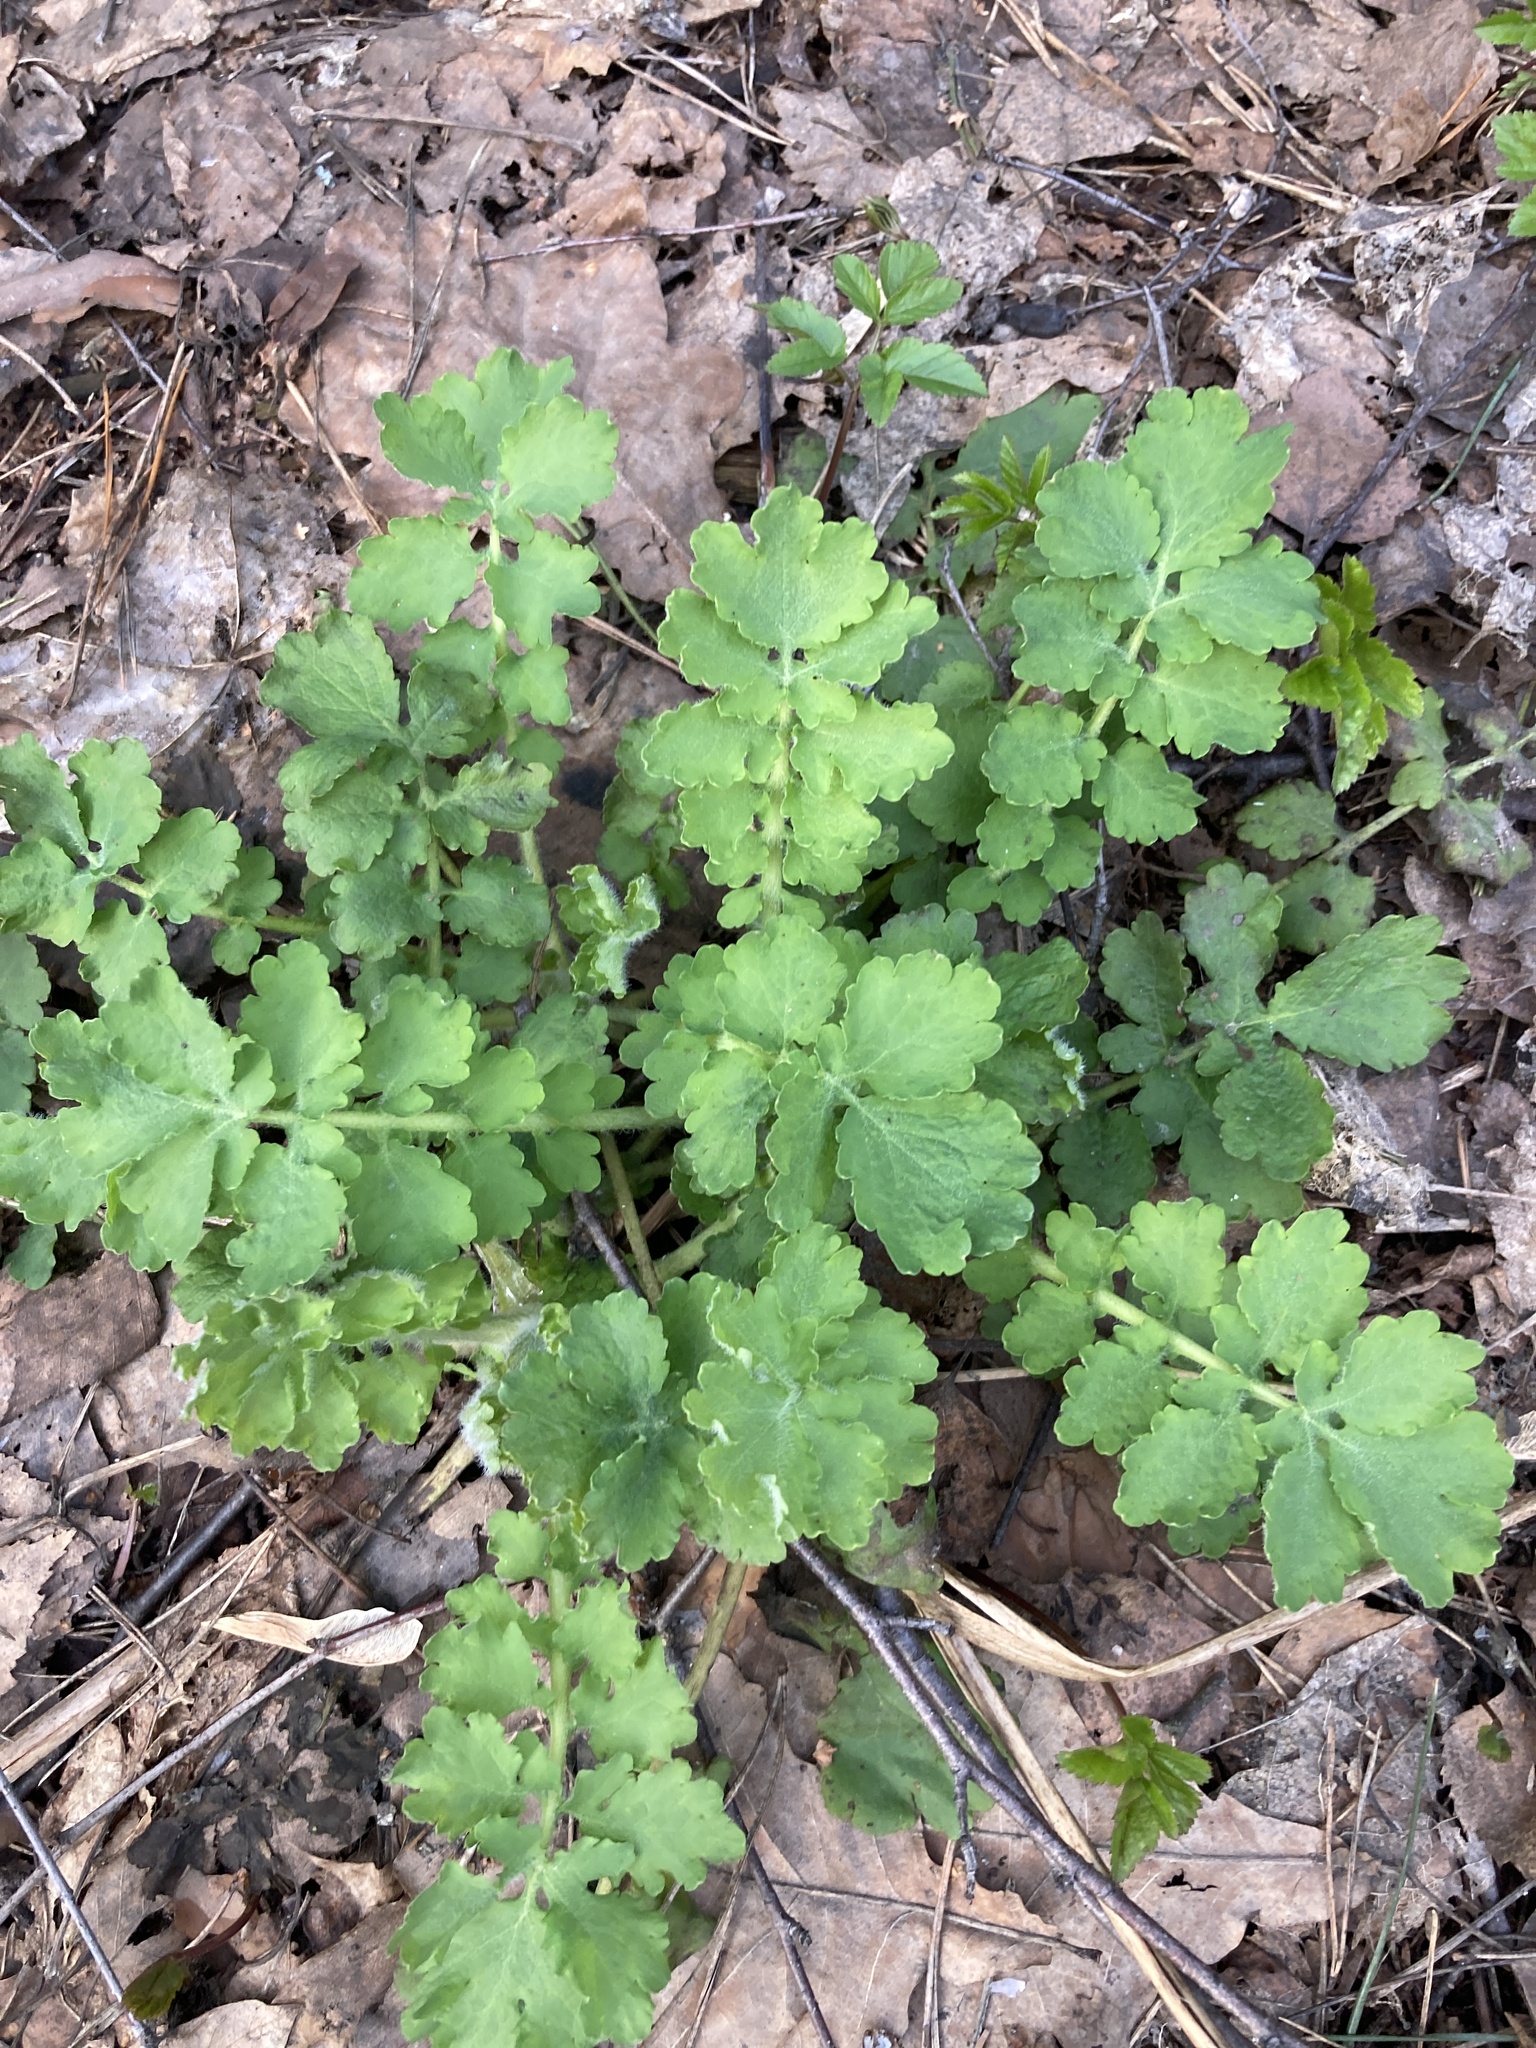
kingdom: Plantae
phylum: Tracheophyta
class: Magnoliopsida
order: Ranunculales
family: Papaveraceae
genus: Chelidonium
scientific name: Chelidonium majus
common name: Greater celandine
